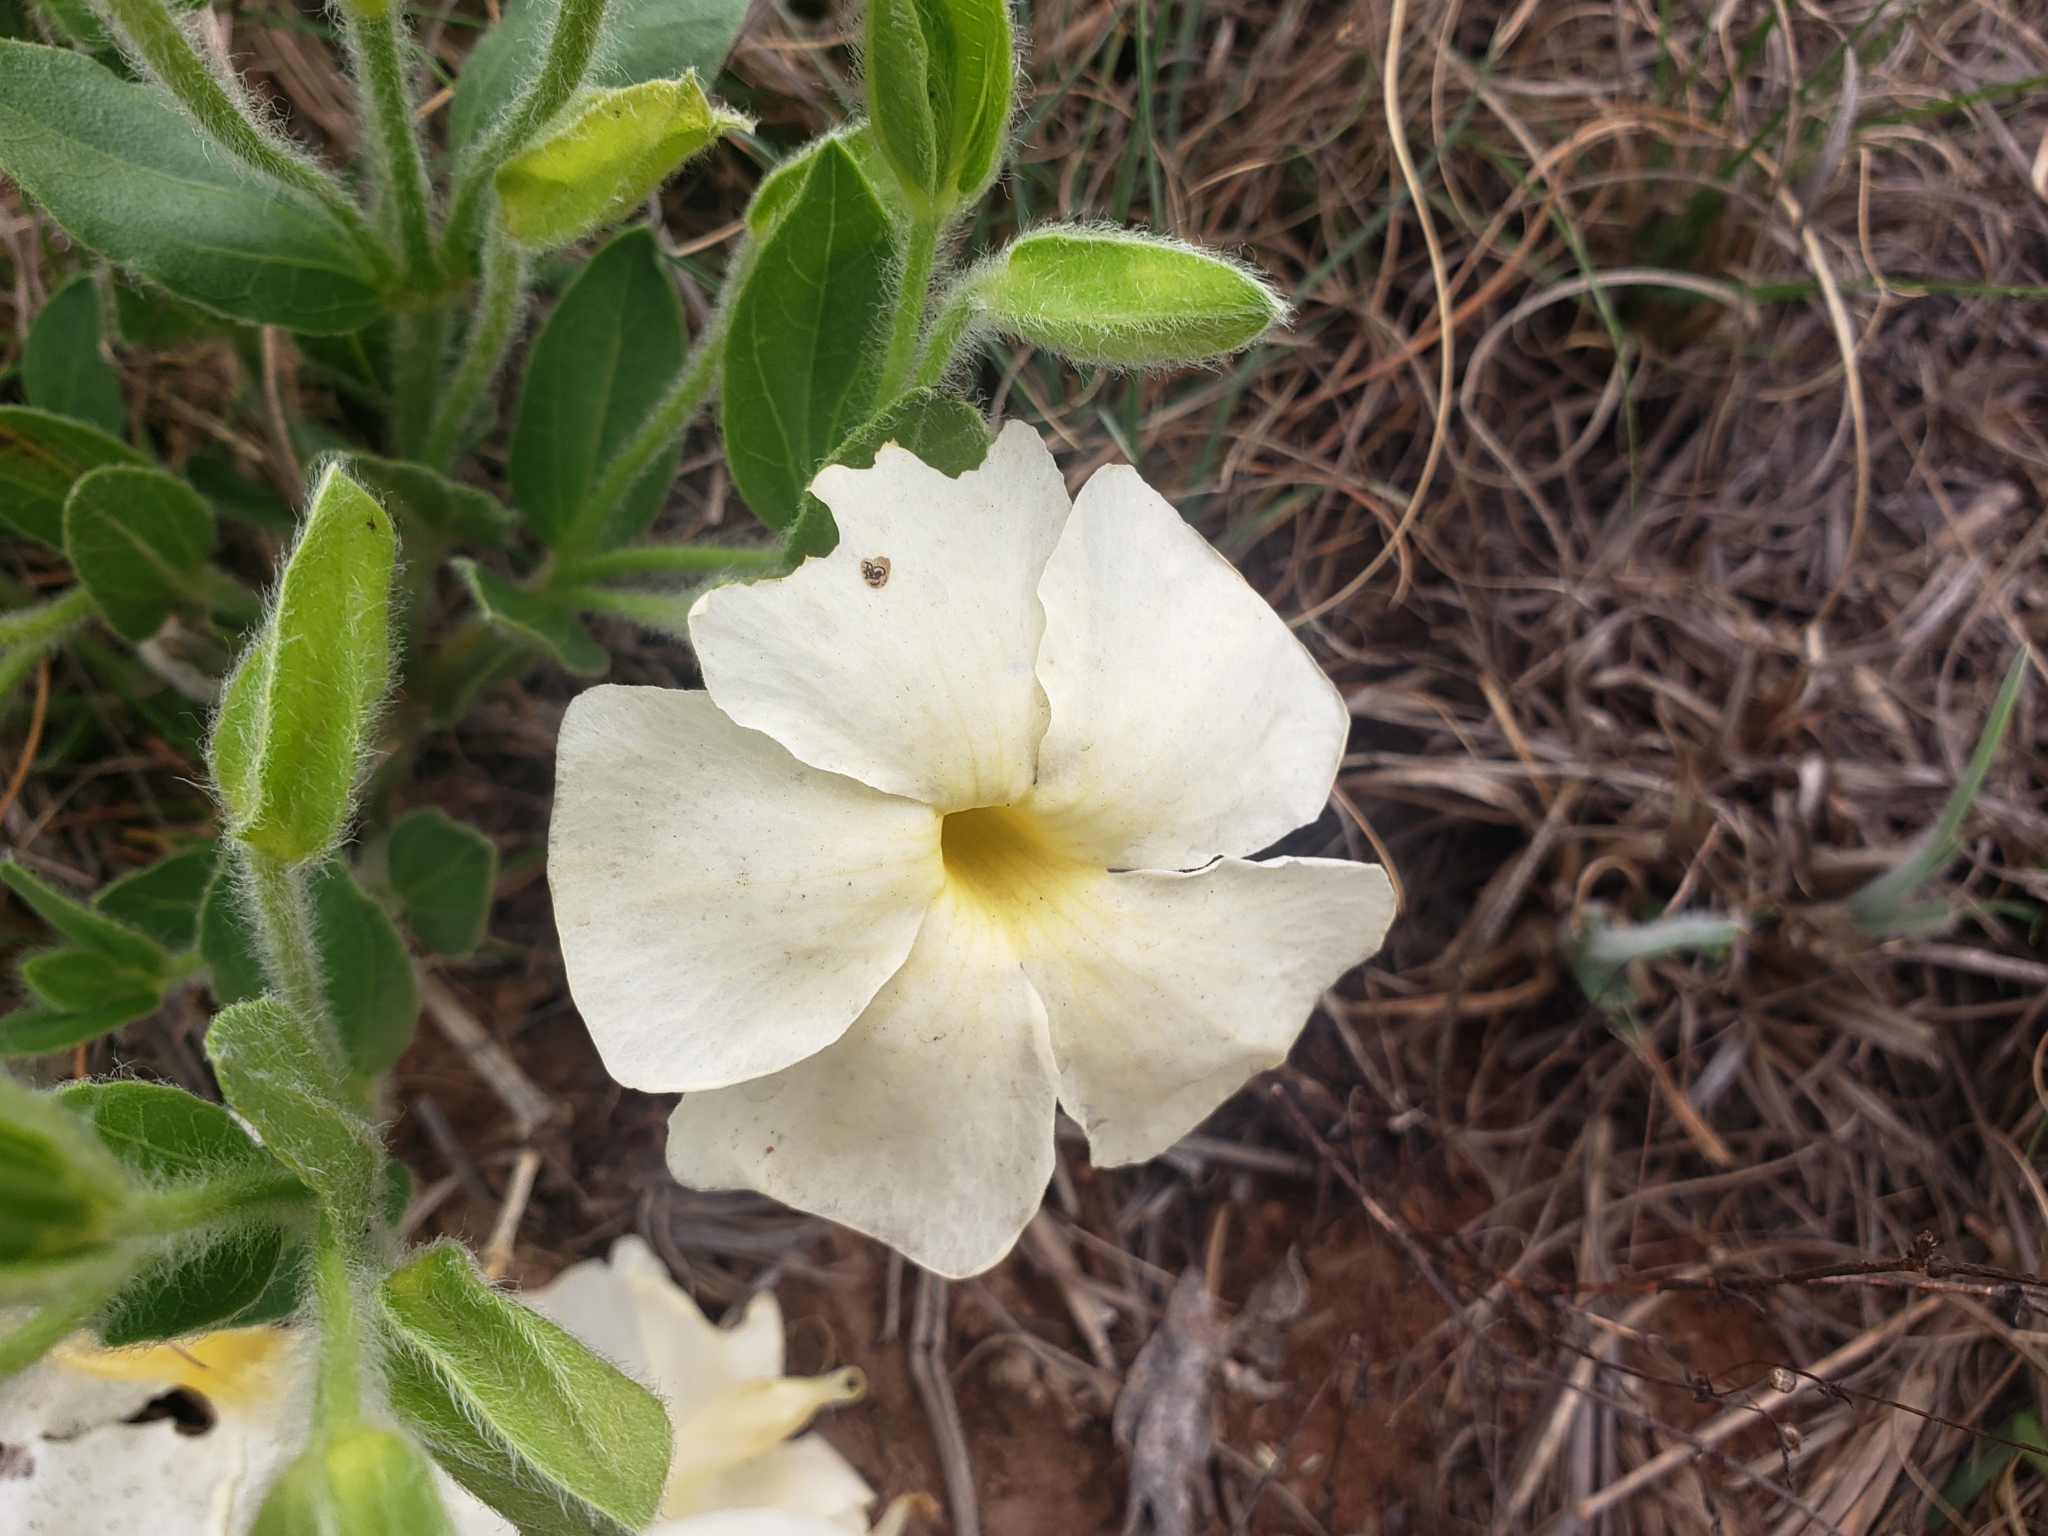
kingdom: Plantae
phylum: Tracheophyta
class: Magnoliopsida
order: Lamiales
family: Acanthaceae
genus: Thunbergia
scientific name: Thunbergia atriplicifolia
